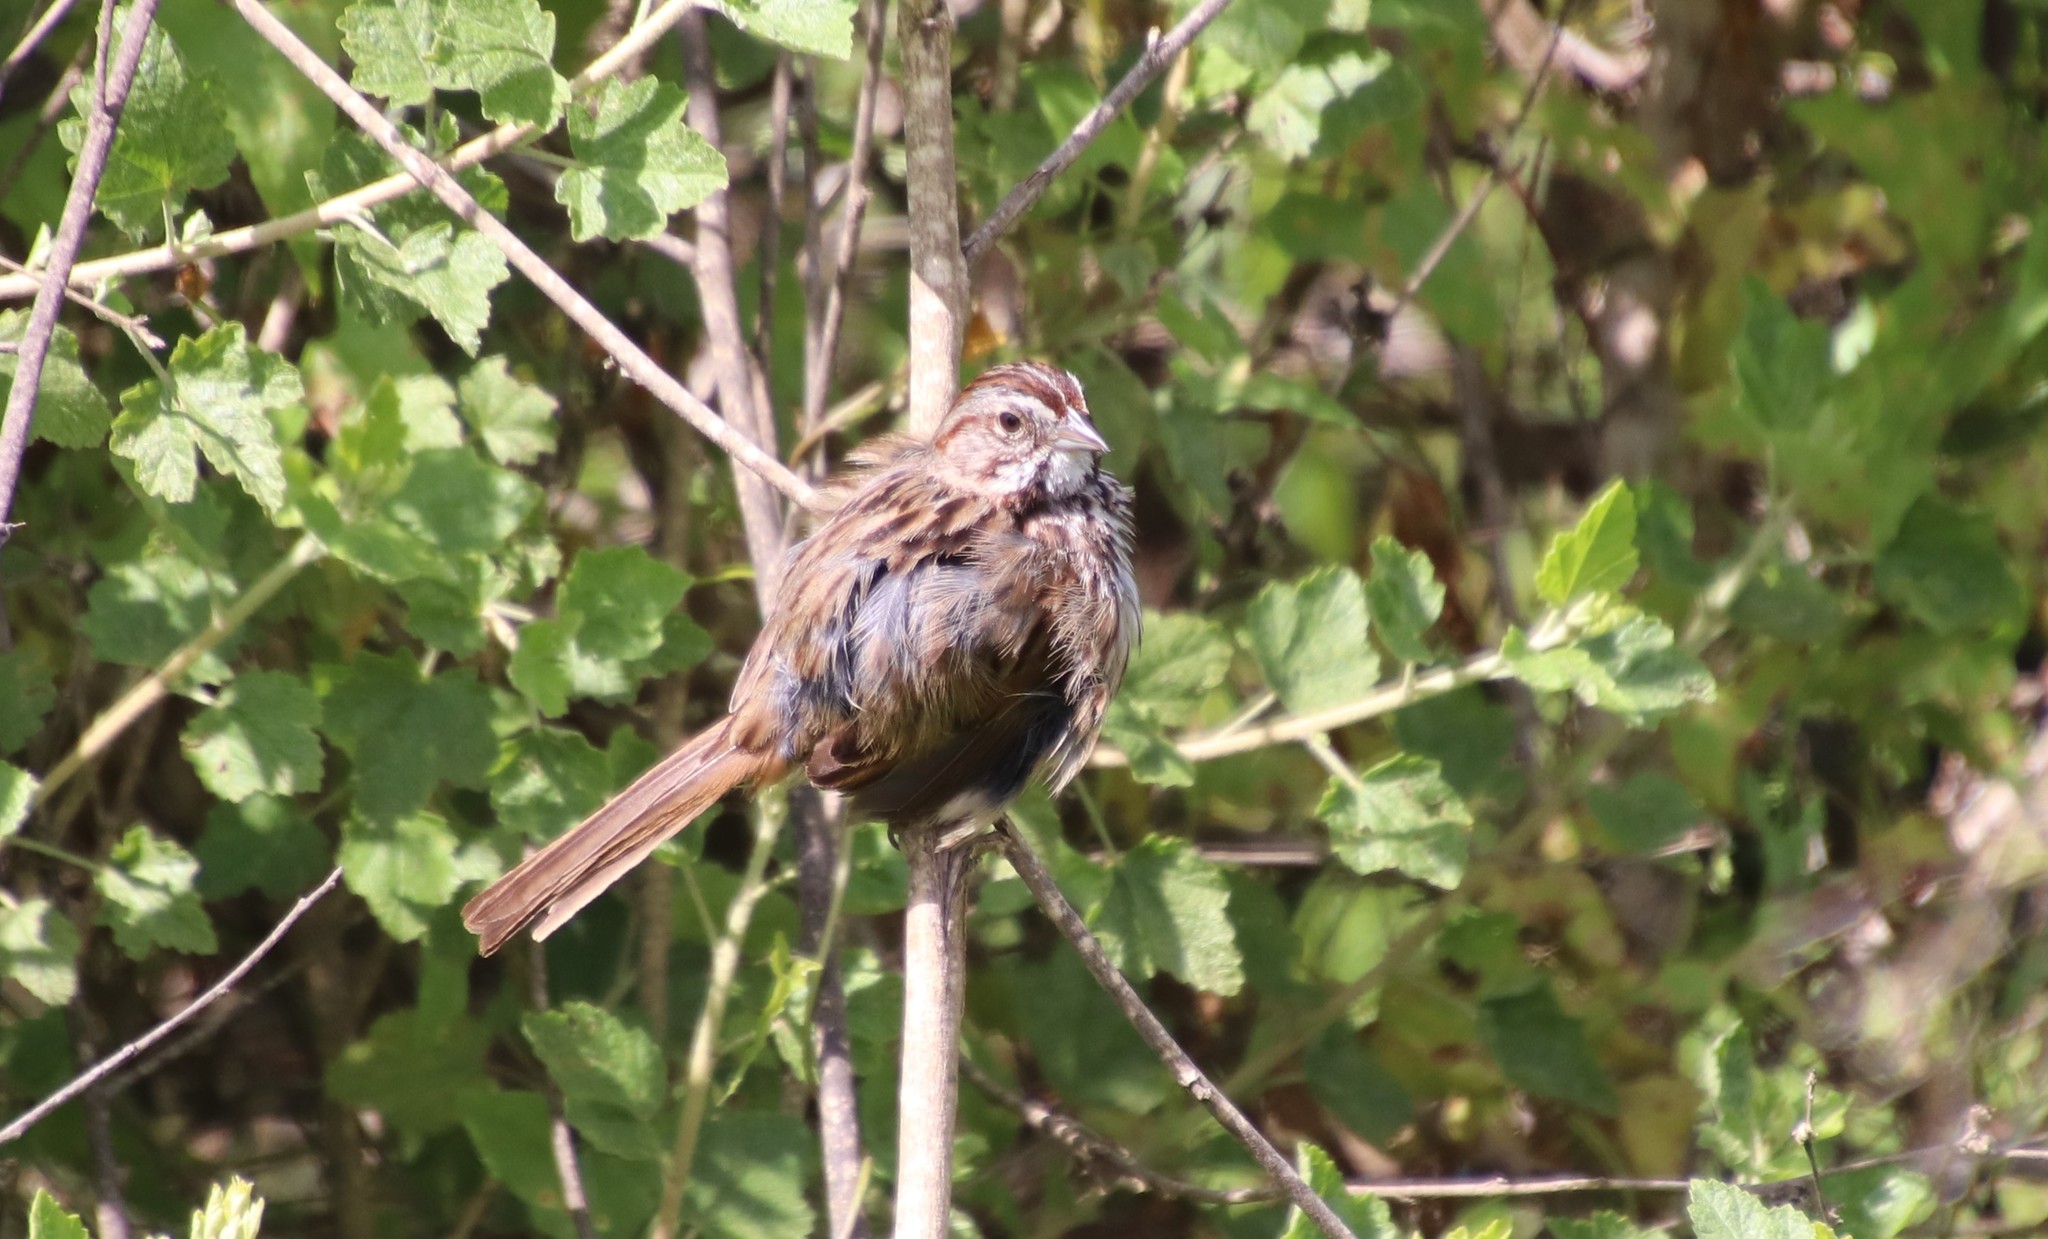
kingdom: Animalia
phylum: Chordata
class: Aves
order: Passeriformes
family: Passerellidae
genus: Melospiza
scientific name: Melospiza melodia
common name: Song sparrow
